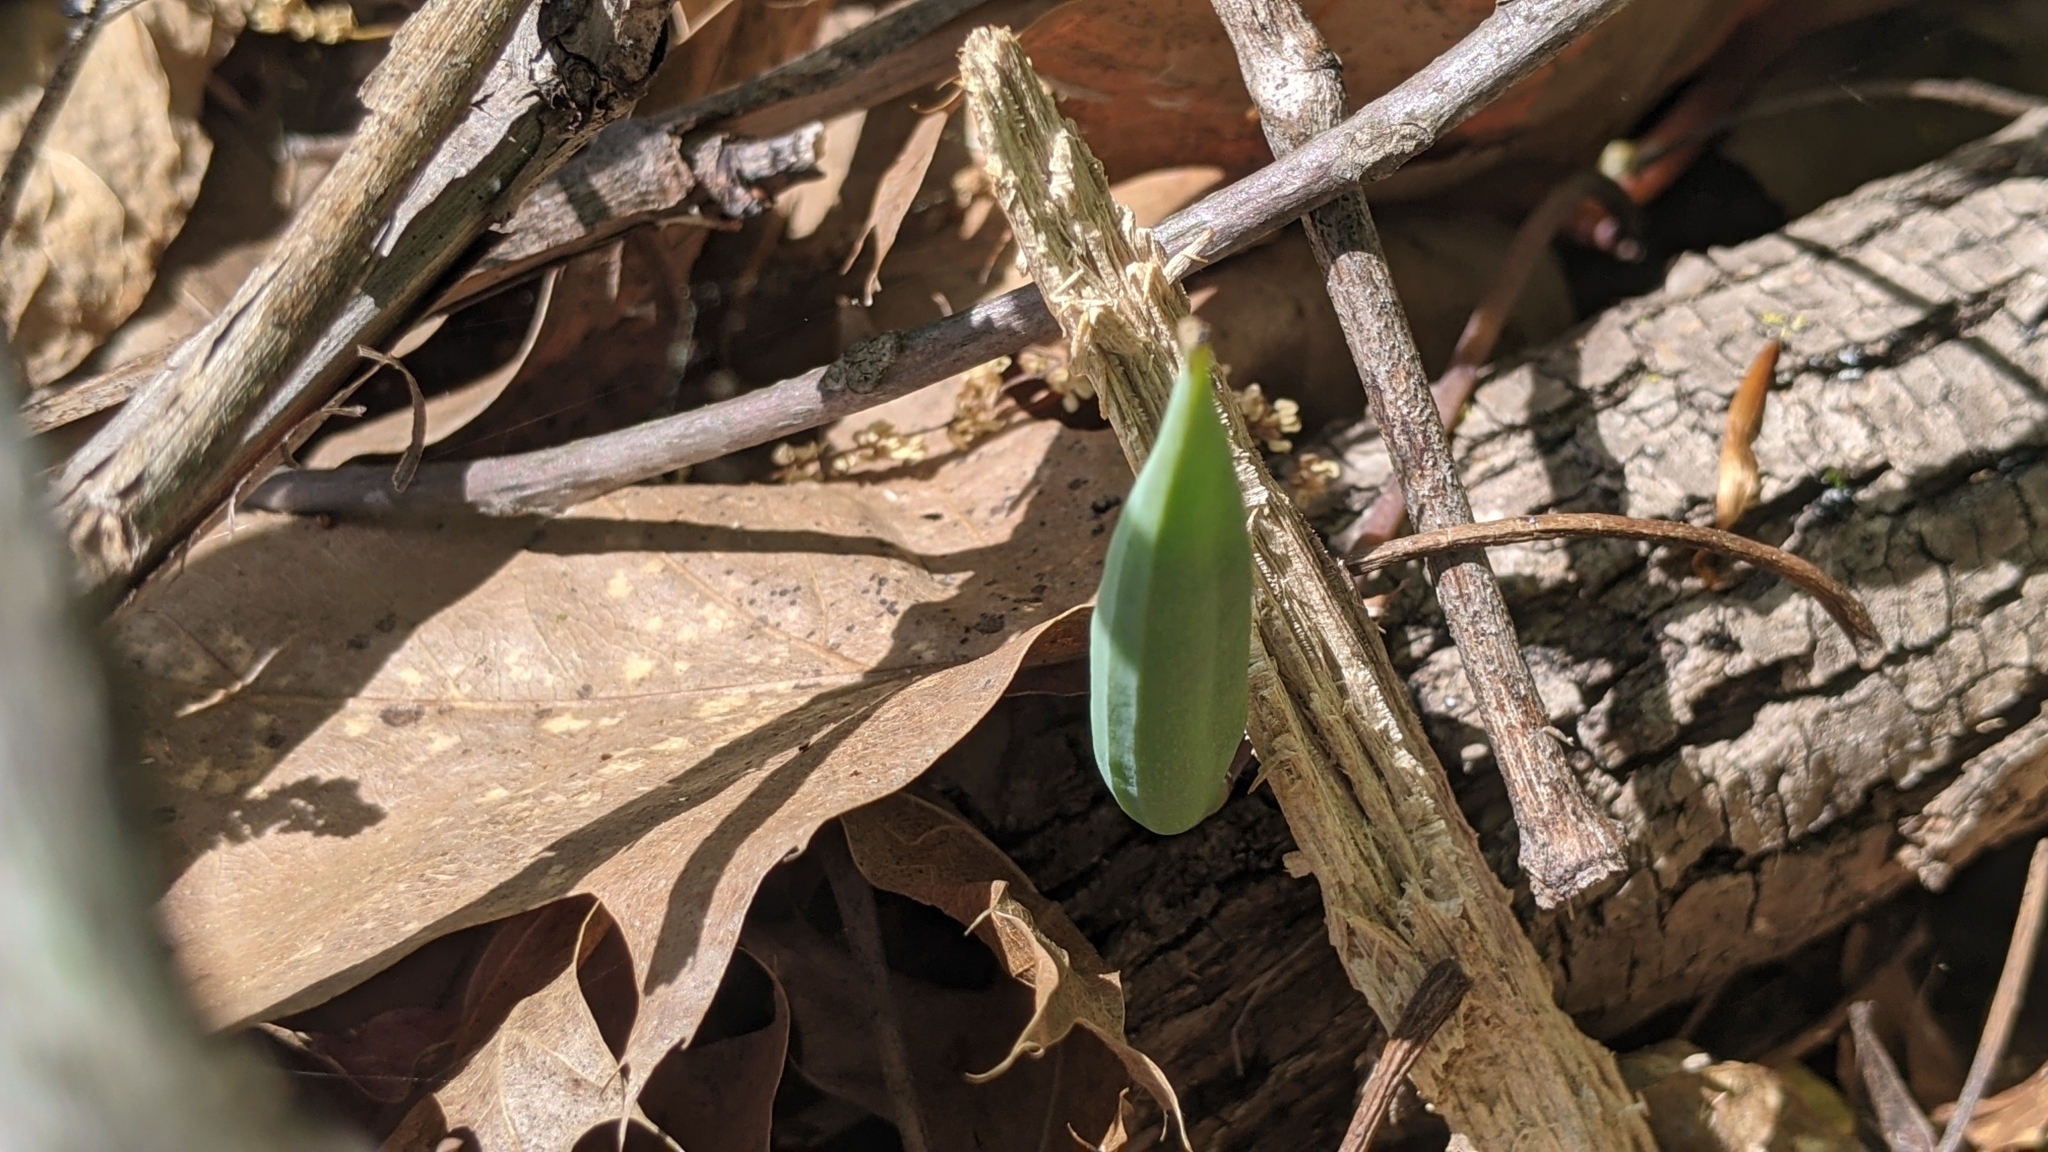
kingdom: Plantae
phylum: Tracheophyta
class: Magnoliopsida
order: Ranunculales
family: Papaveraceae
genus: Sanguinaria
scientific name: Sanguinaria canadensis
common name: Bloodroot
